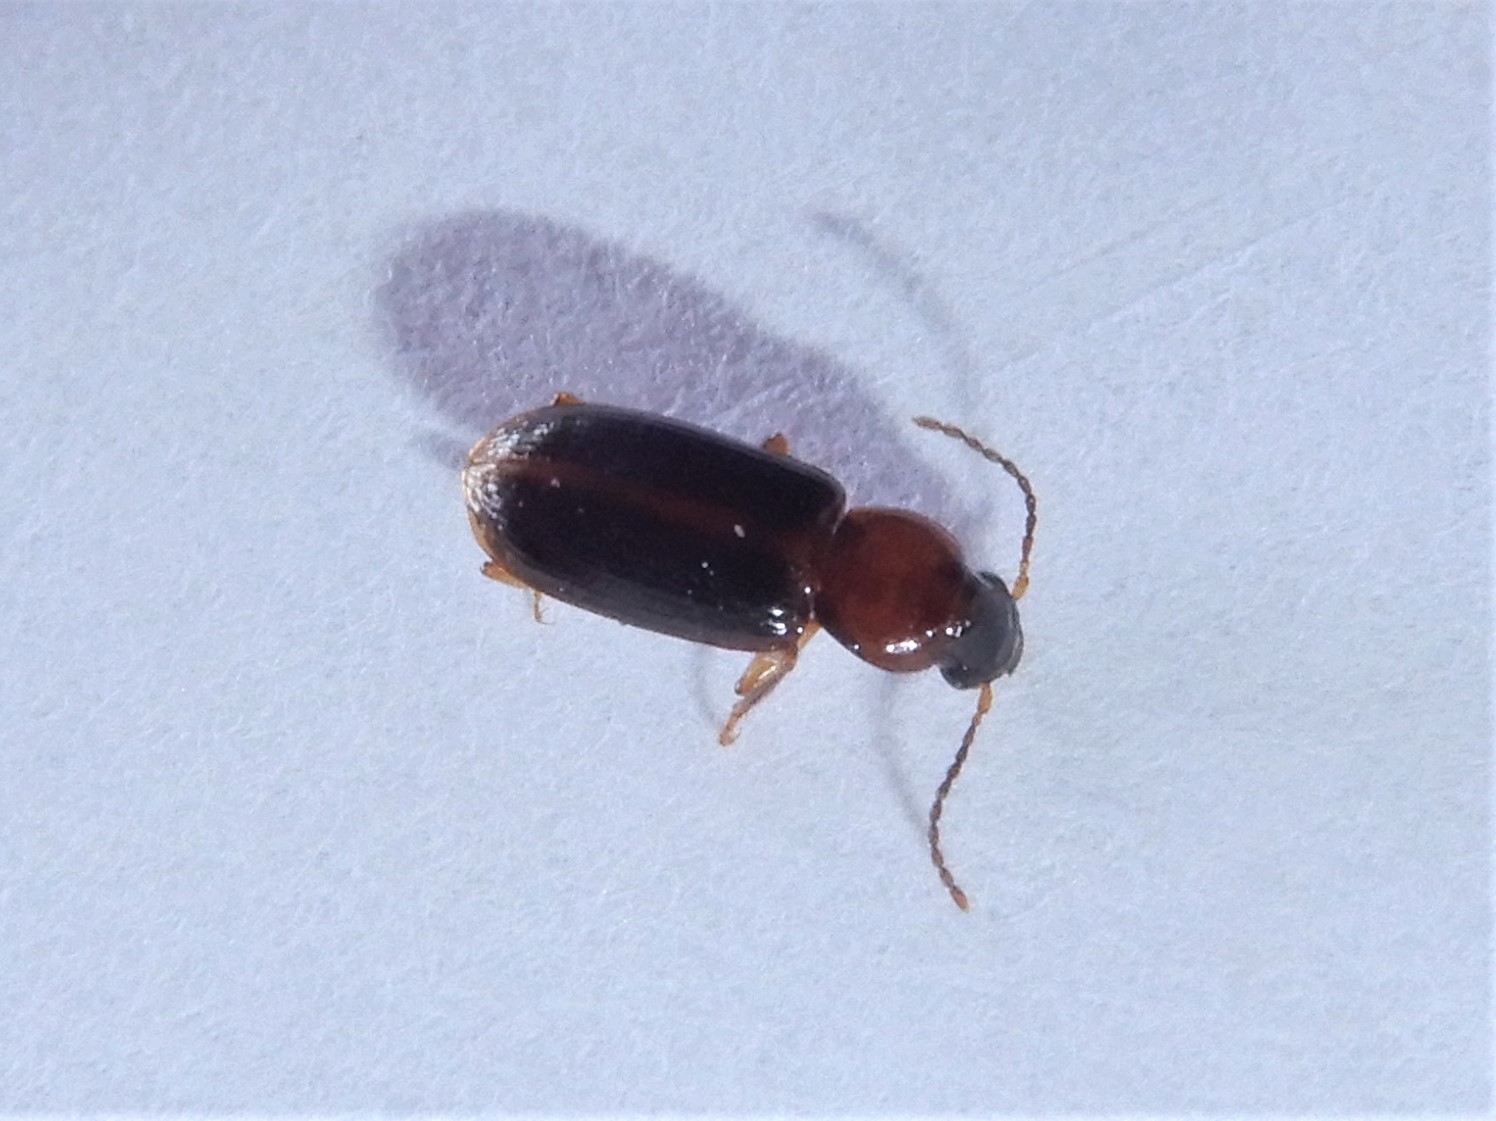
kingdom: Animalia
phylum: Arthropoda
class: Insecta
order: Coleoptera
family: Carabidae
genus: Lecanomerus
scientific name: Lecanomerus atriceps
